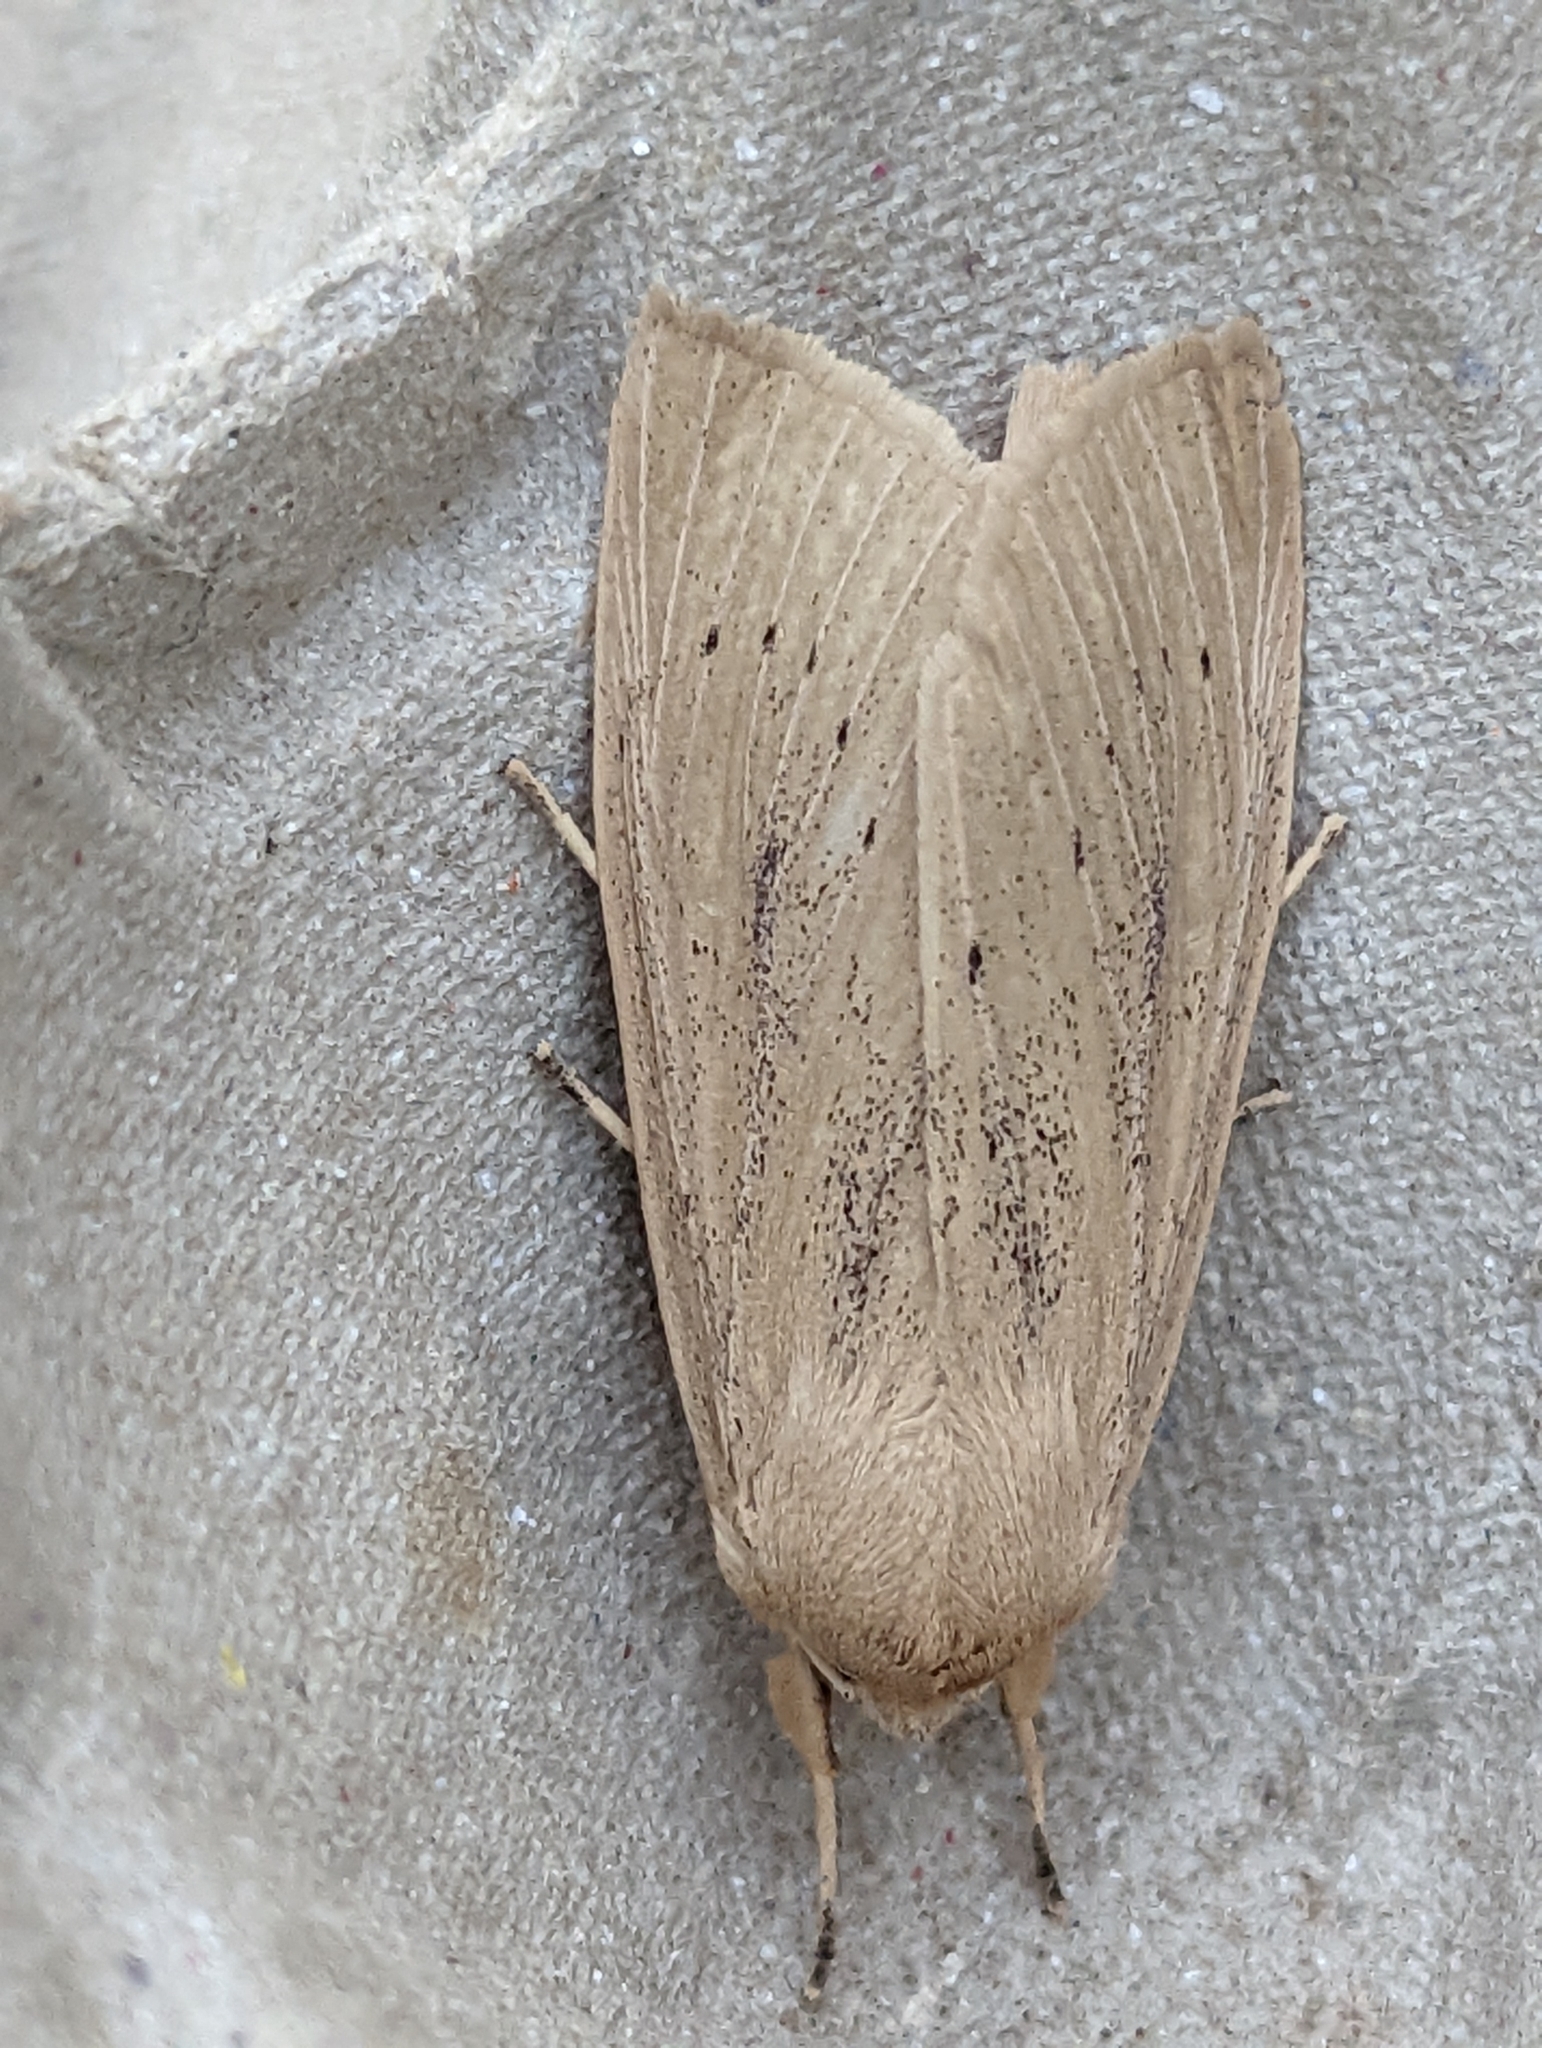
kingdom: Animalia
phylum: Arthropoda
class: Insecta
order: Lepidoptera
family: Noctuidae
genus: Rhizedra
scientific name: Rhizedra lutosa
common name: Large wainscot
